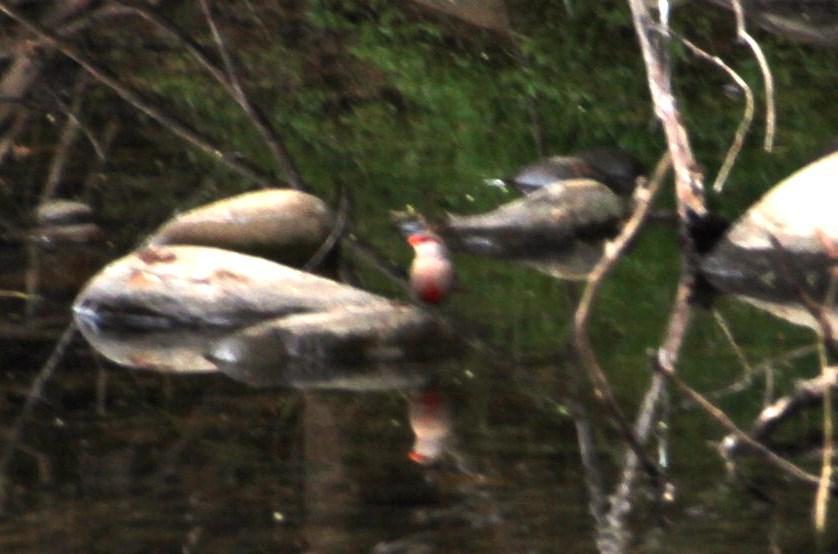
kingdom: Animalia
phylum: Chordata
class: Aves
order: Passeriformes
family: Estrildidae
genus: Estrilda
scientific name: Estrilda astrild
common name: Common waxbill
